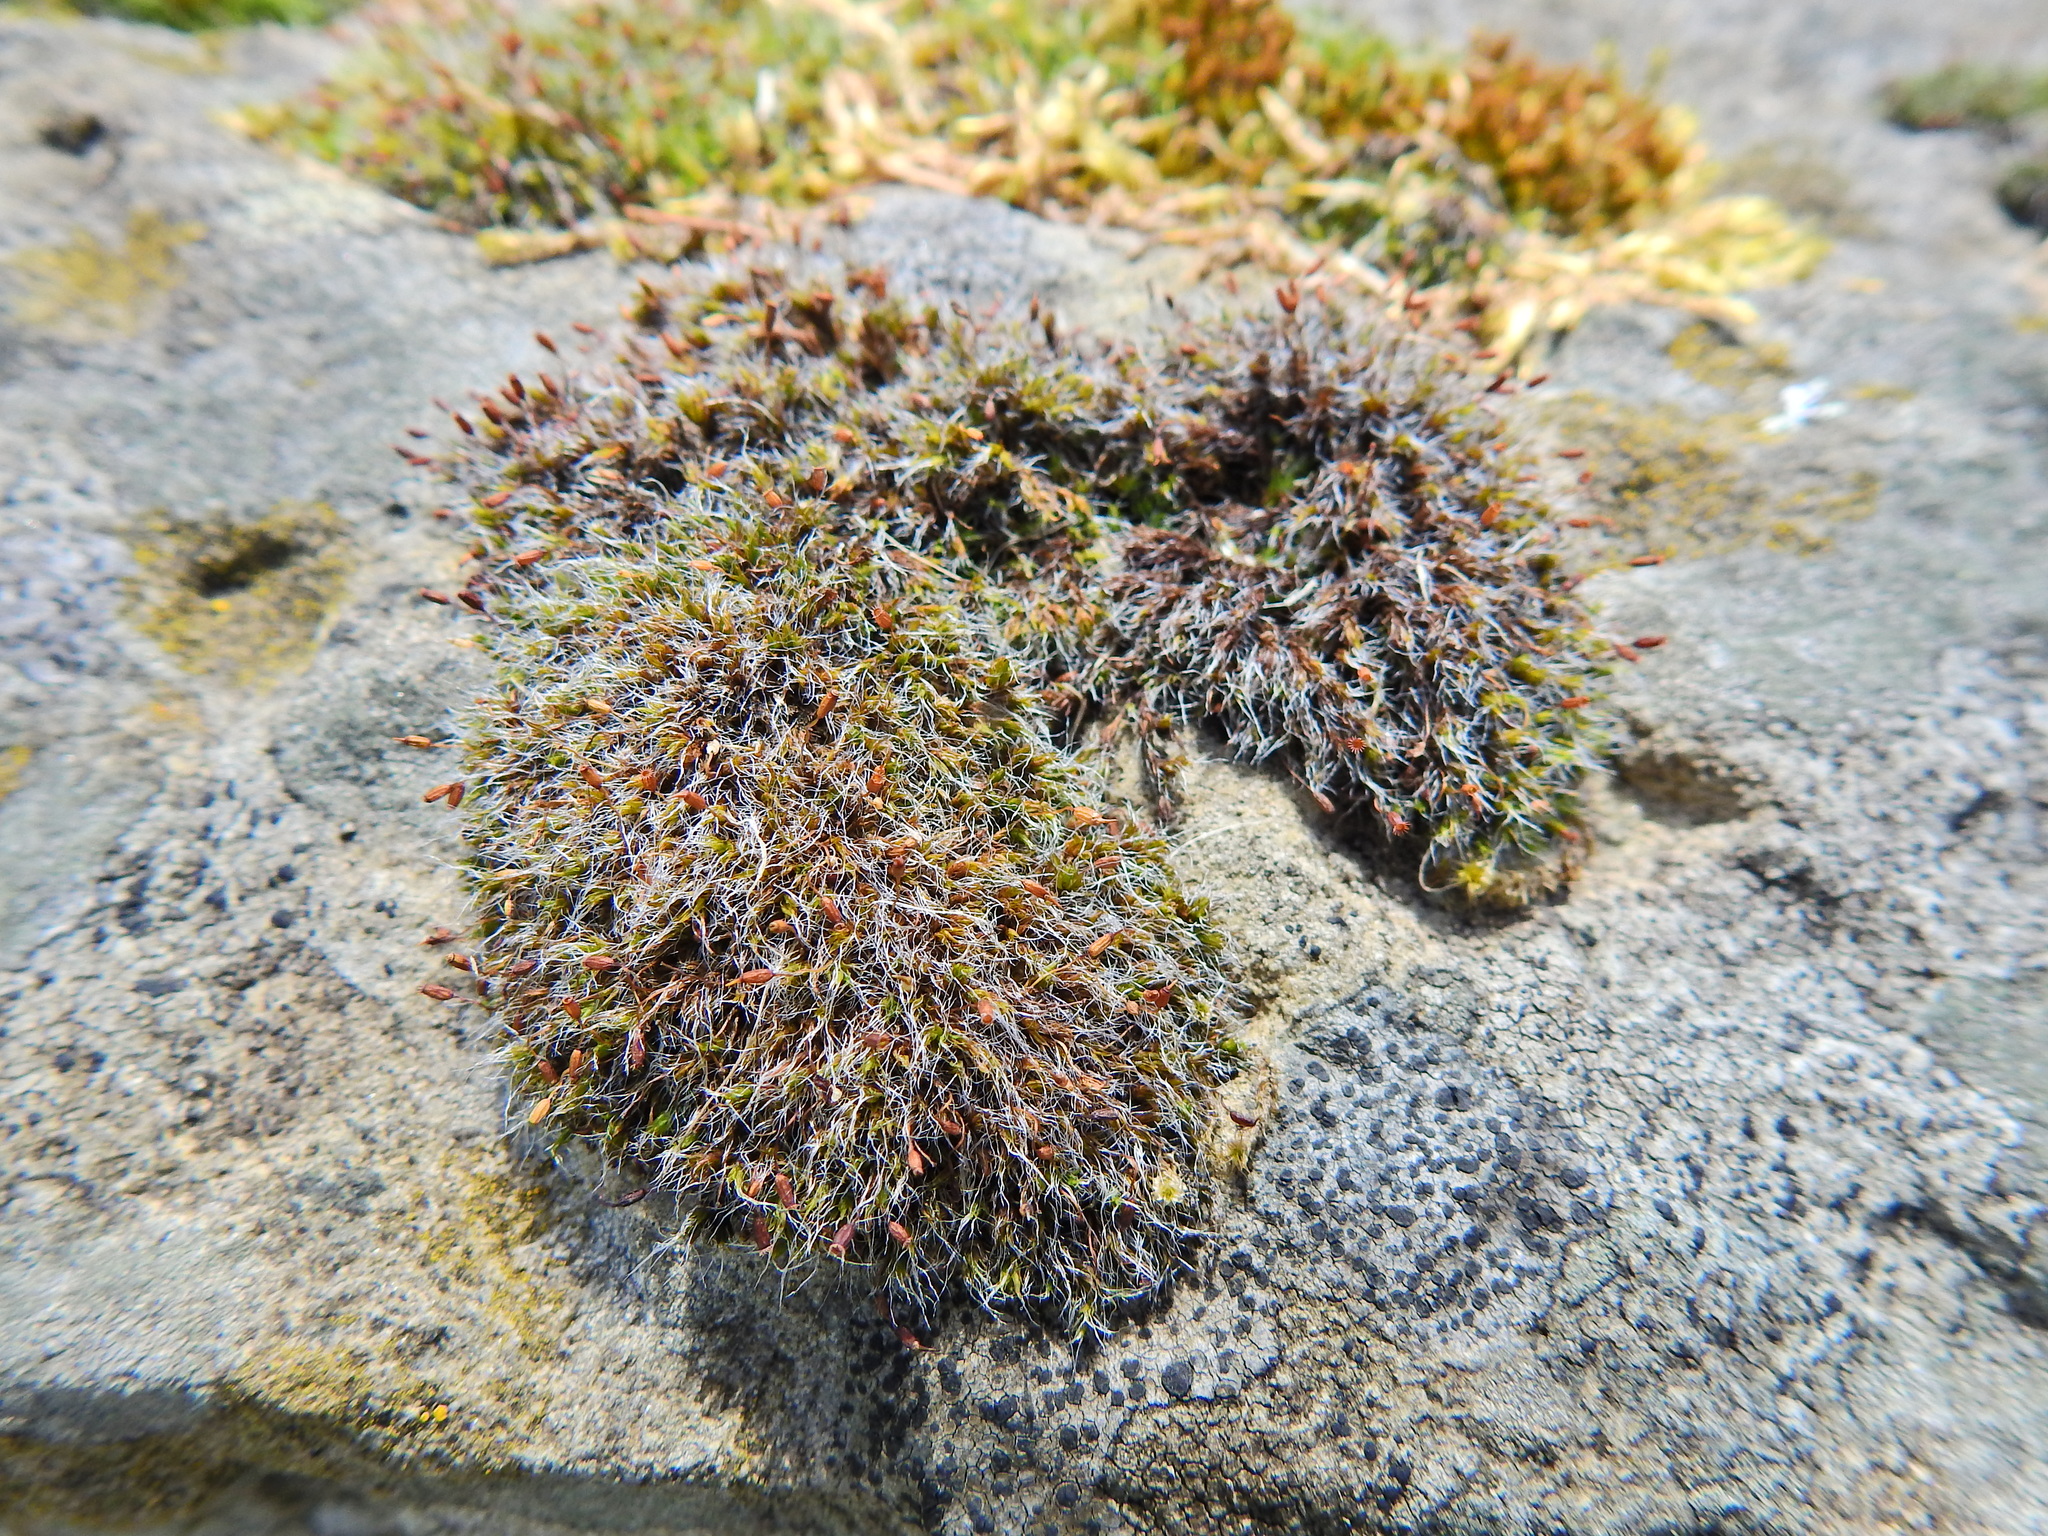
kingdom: Plantae
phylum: Bryophyta
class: Bryopsida
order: Grimmiales
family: Grimmiaceae
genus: Grimmia
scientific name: Grimmia pulvinata
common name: Grey-cushioned grimmia
